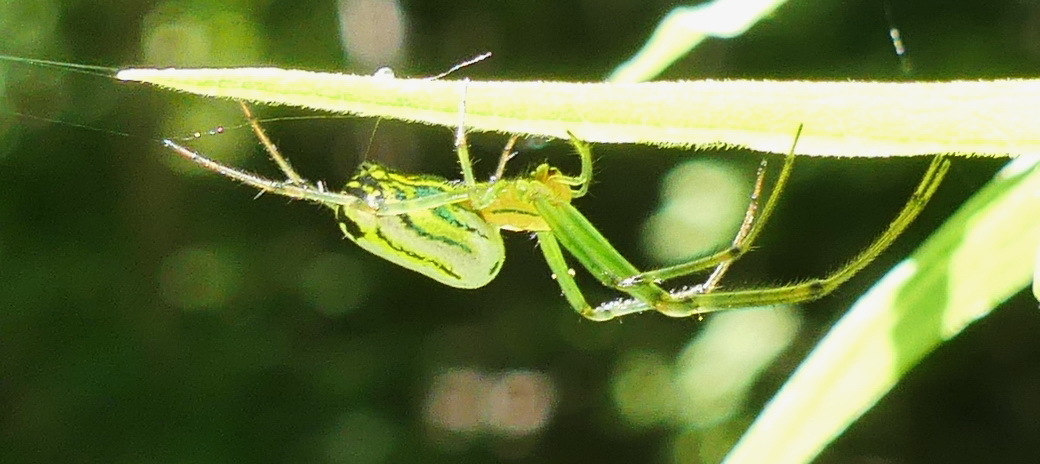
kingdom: Animalia
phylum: Arthropoda
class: Arachnida
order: Araneae
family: Tetragnathidae
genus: Leucauge
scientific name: Leucauge venusta
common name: Longjawed orb weavers
